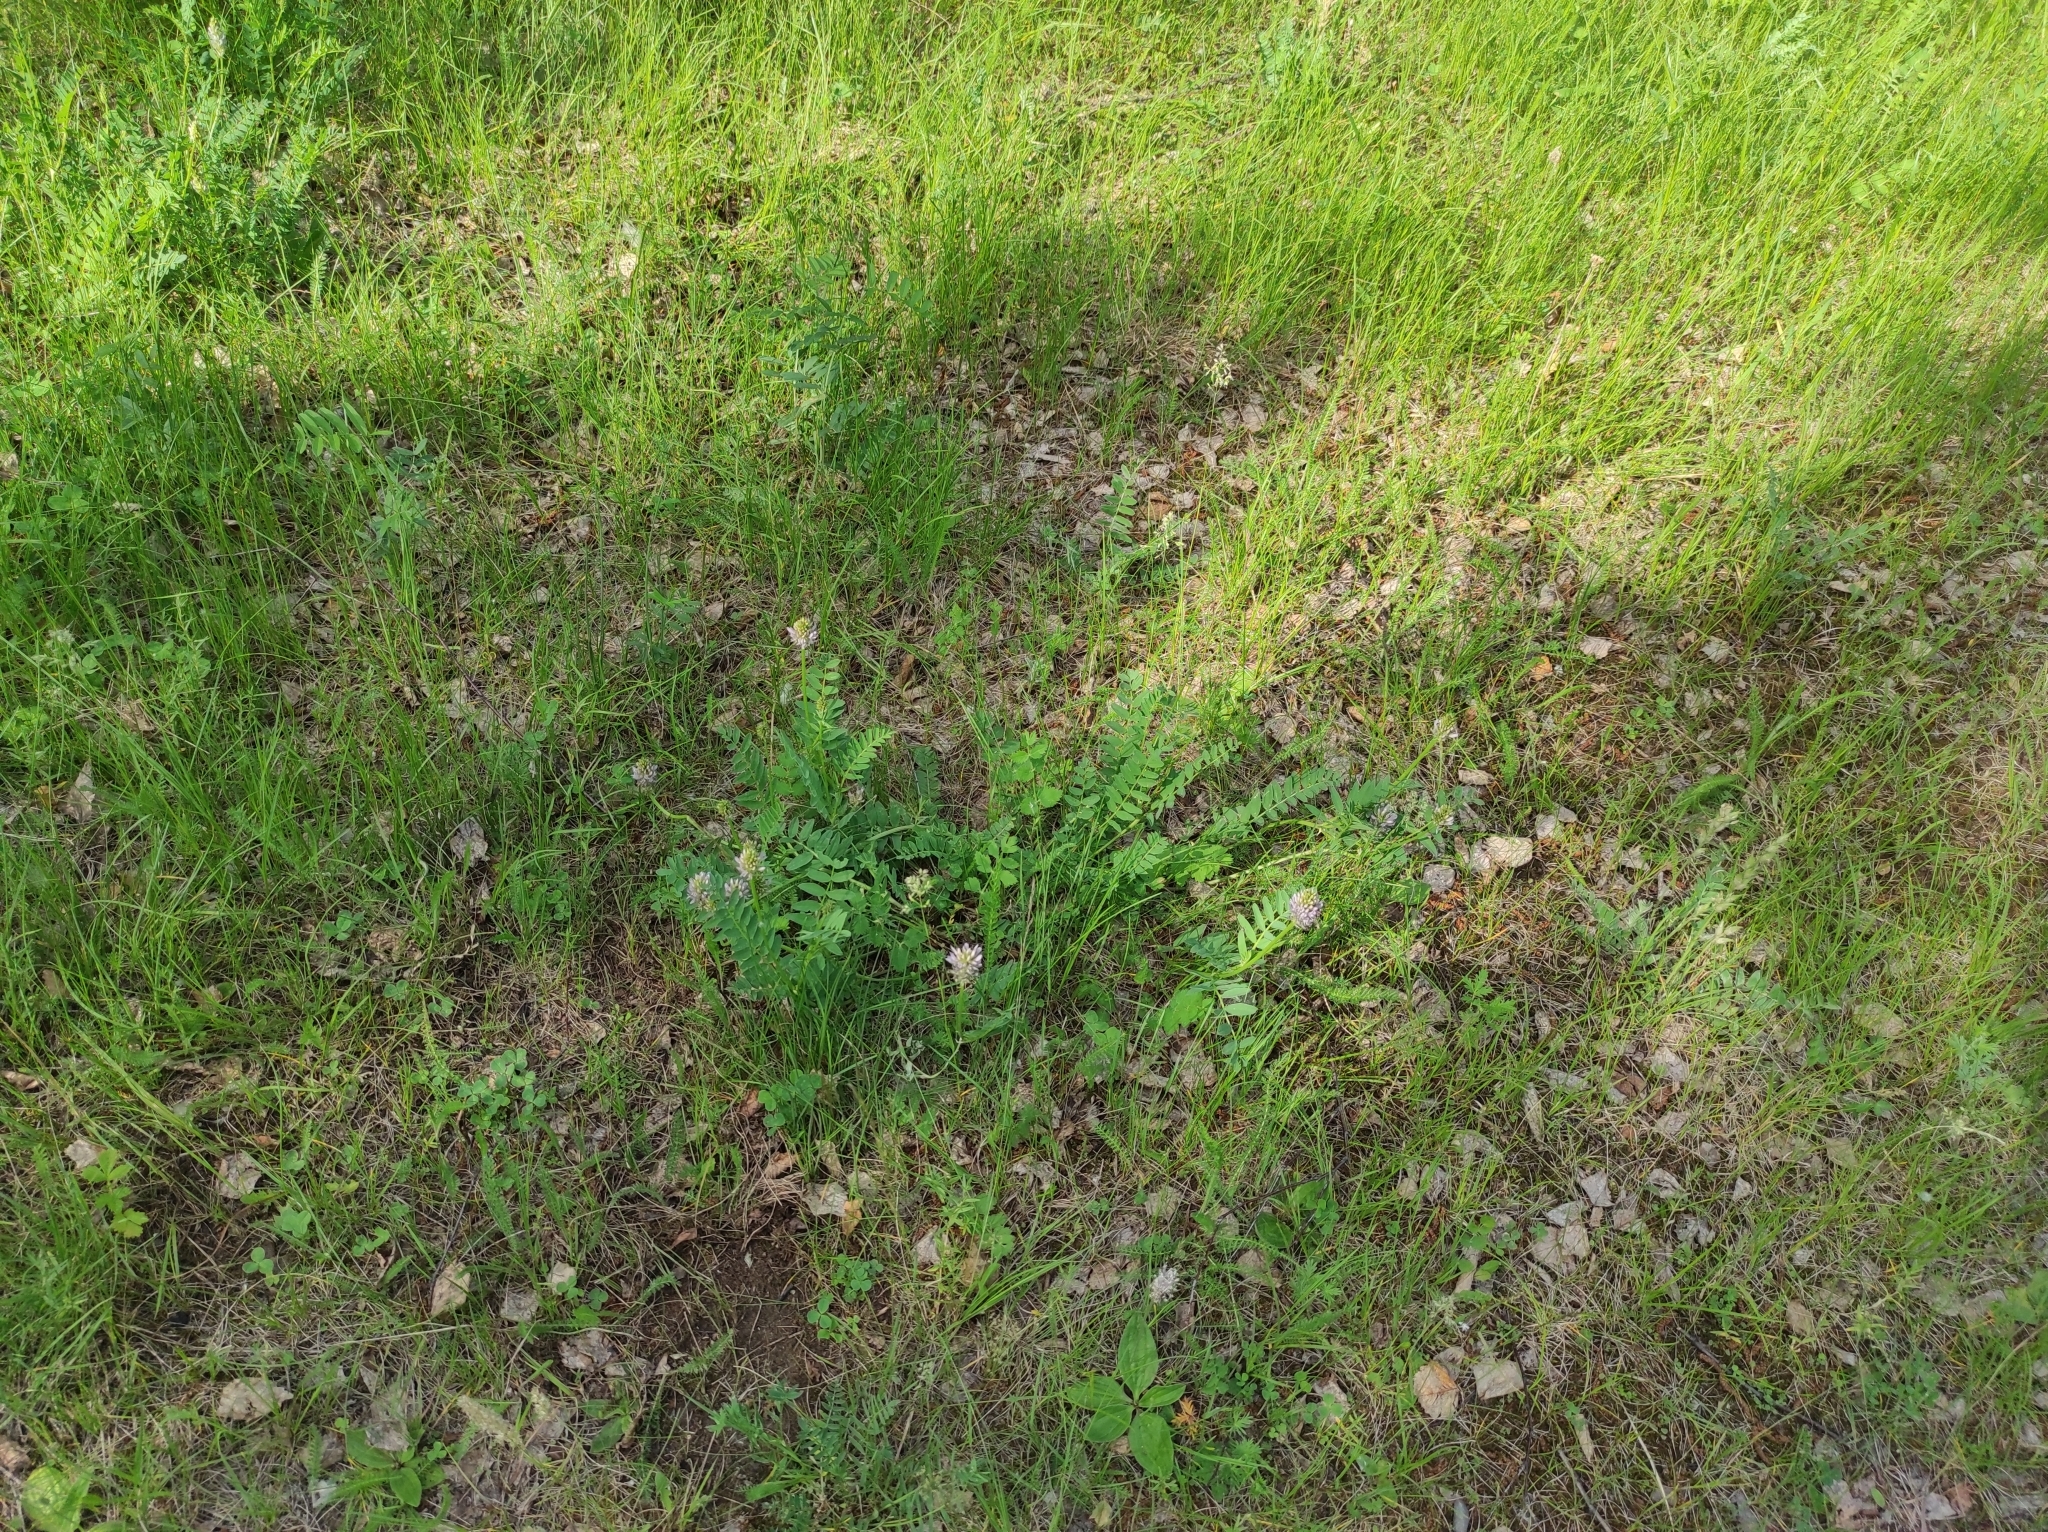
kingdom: Plantae
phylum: Tracheophyta
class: Magnoliopsida
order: Fabales
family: Fabaceae
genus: Astragalus
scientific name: Astragalus danicus
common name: Purple milk-vetch
